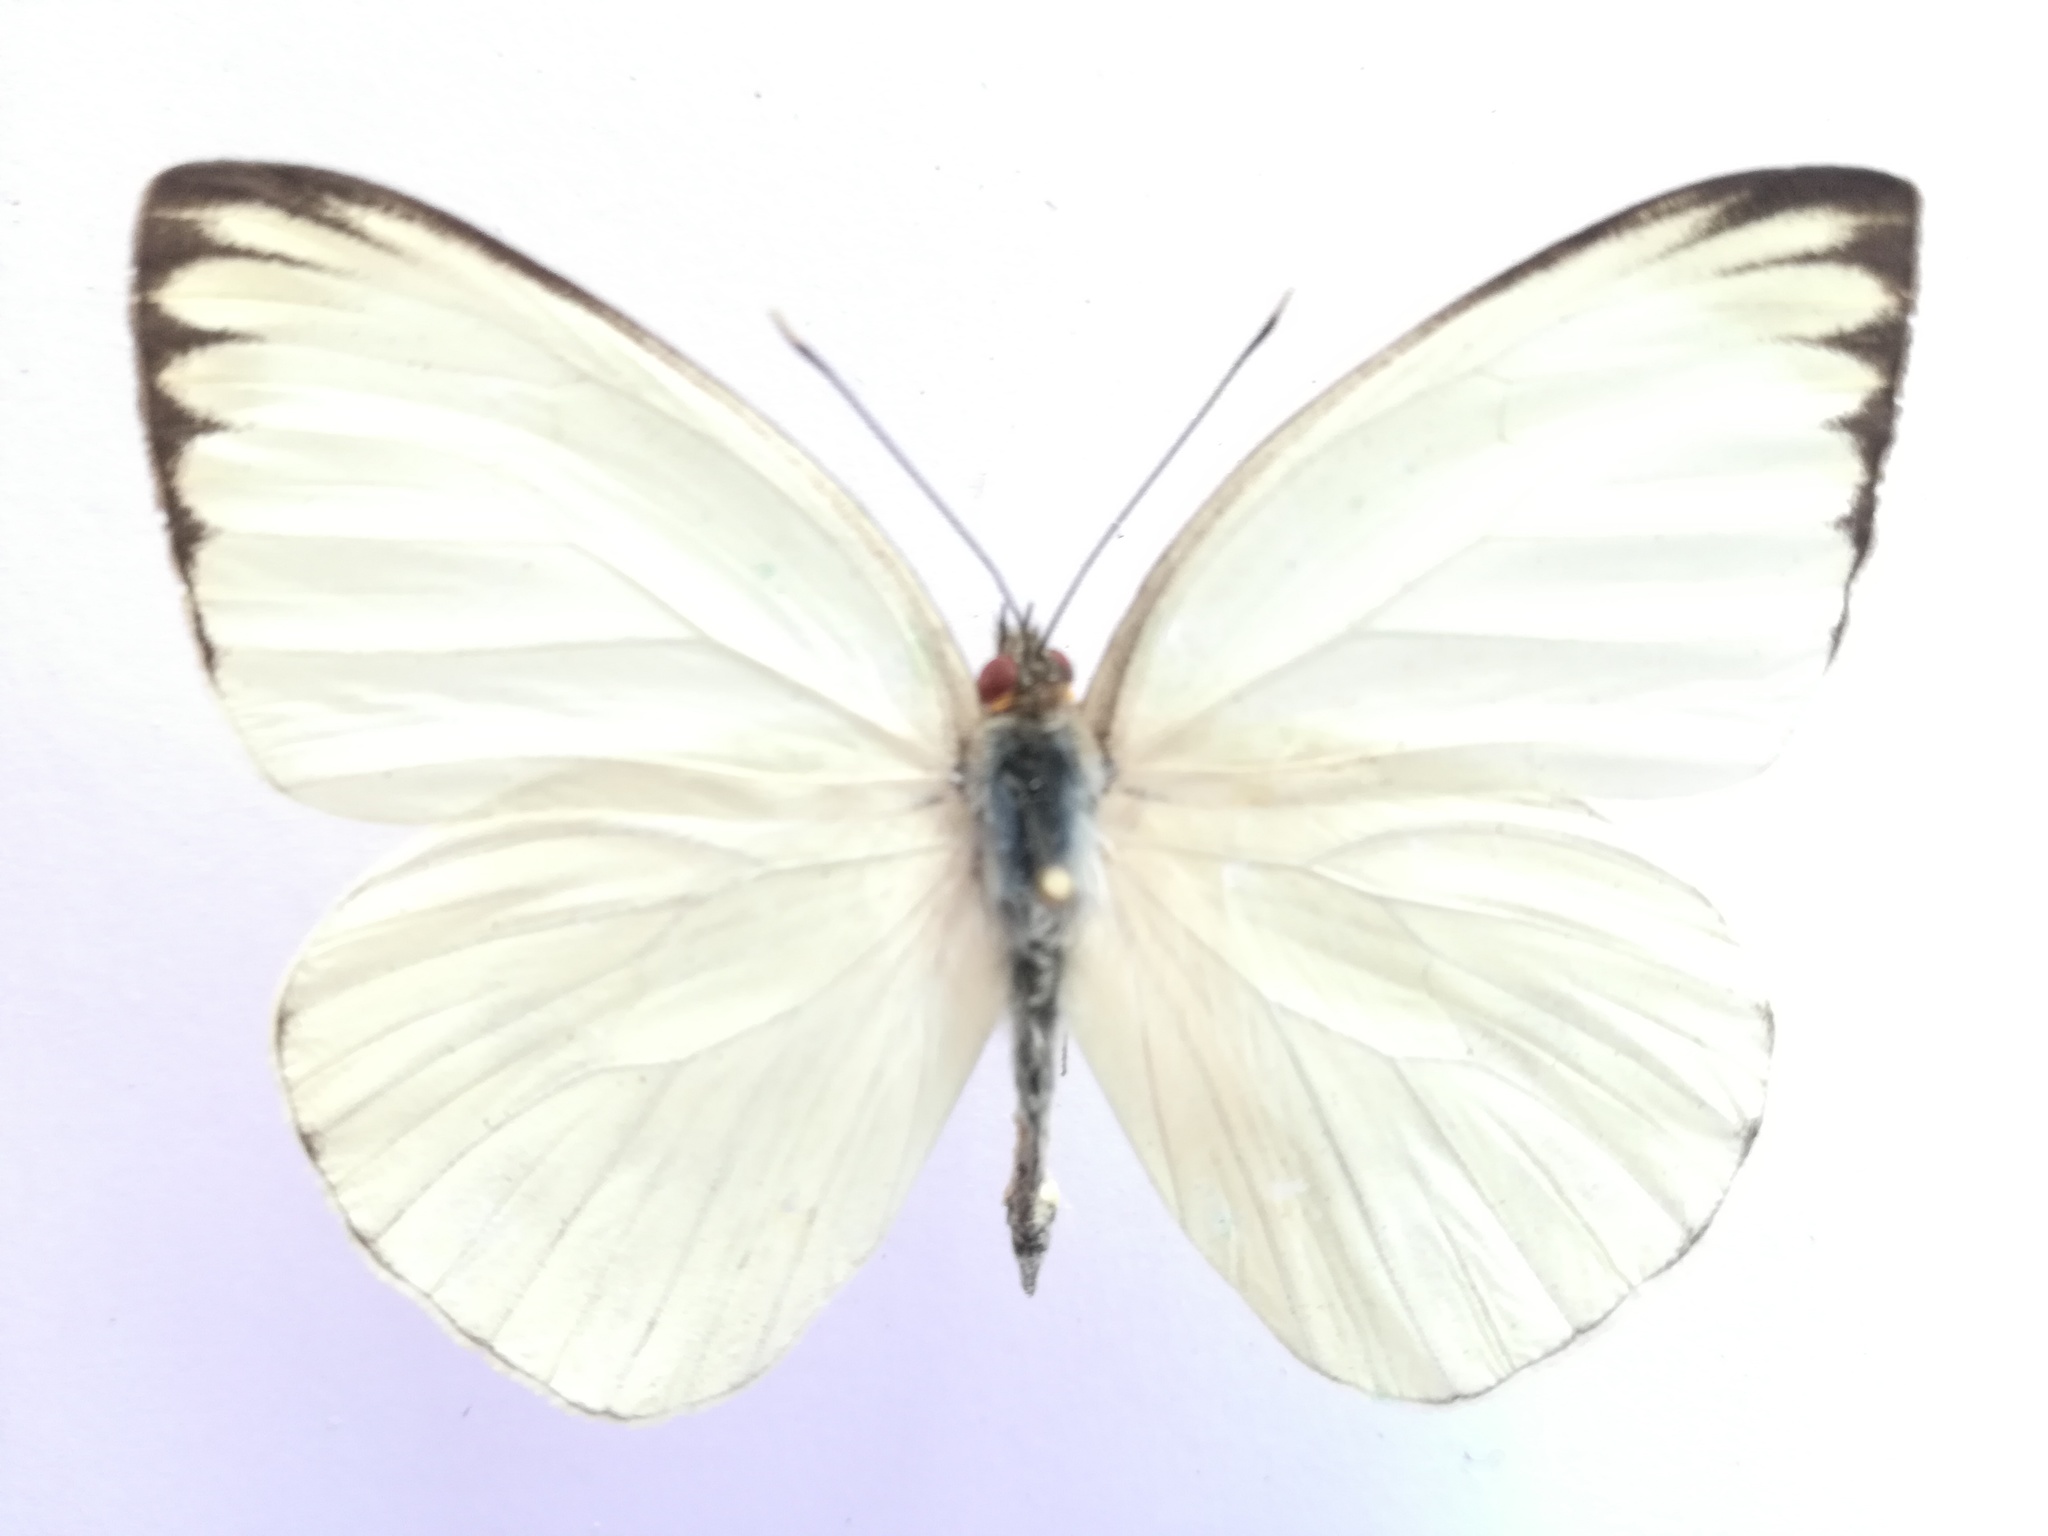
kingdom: Animalia
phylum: Arthropoda
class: Insecta
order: Lepidoptera
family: Pieridae
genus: Ascia
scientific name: Ascia monuste
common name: Great southern white
